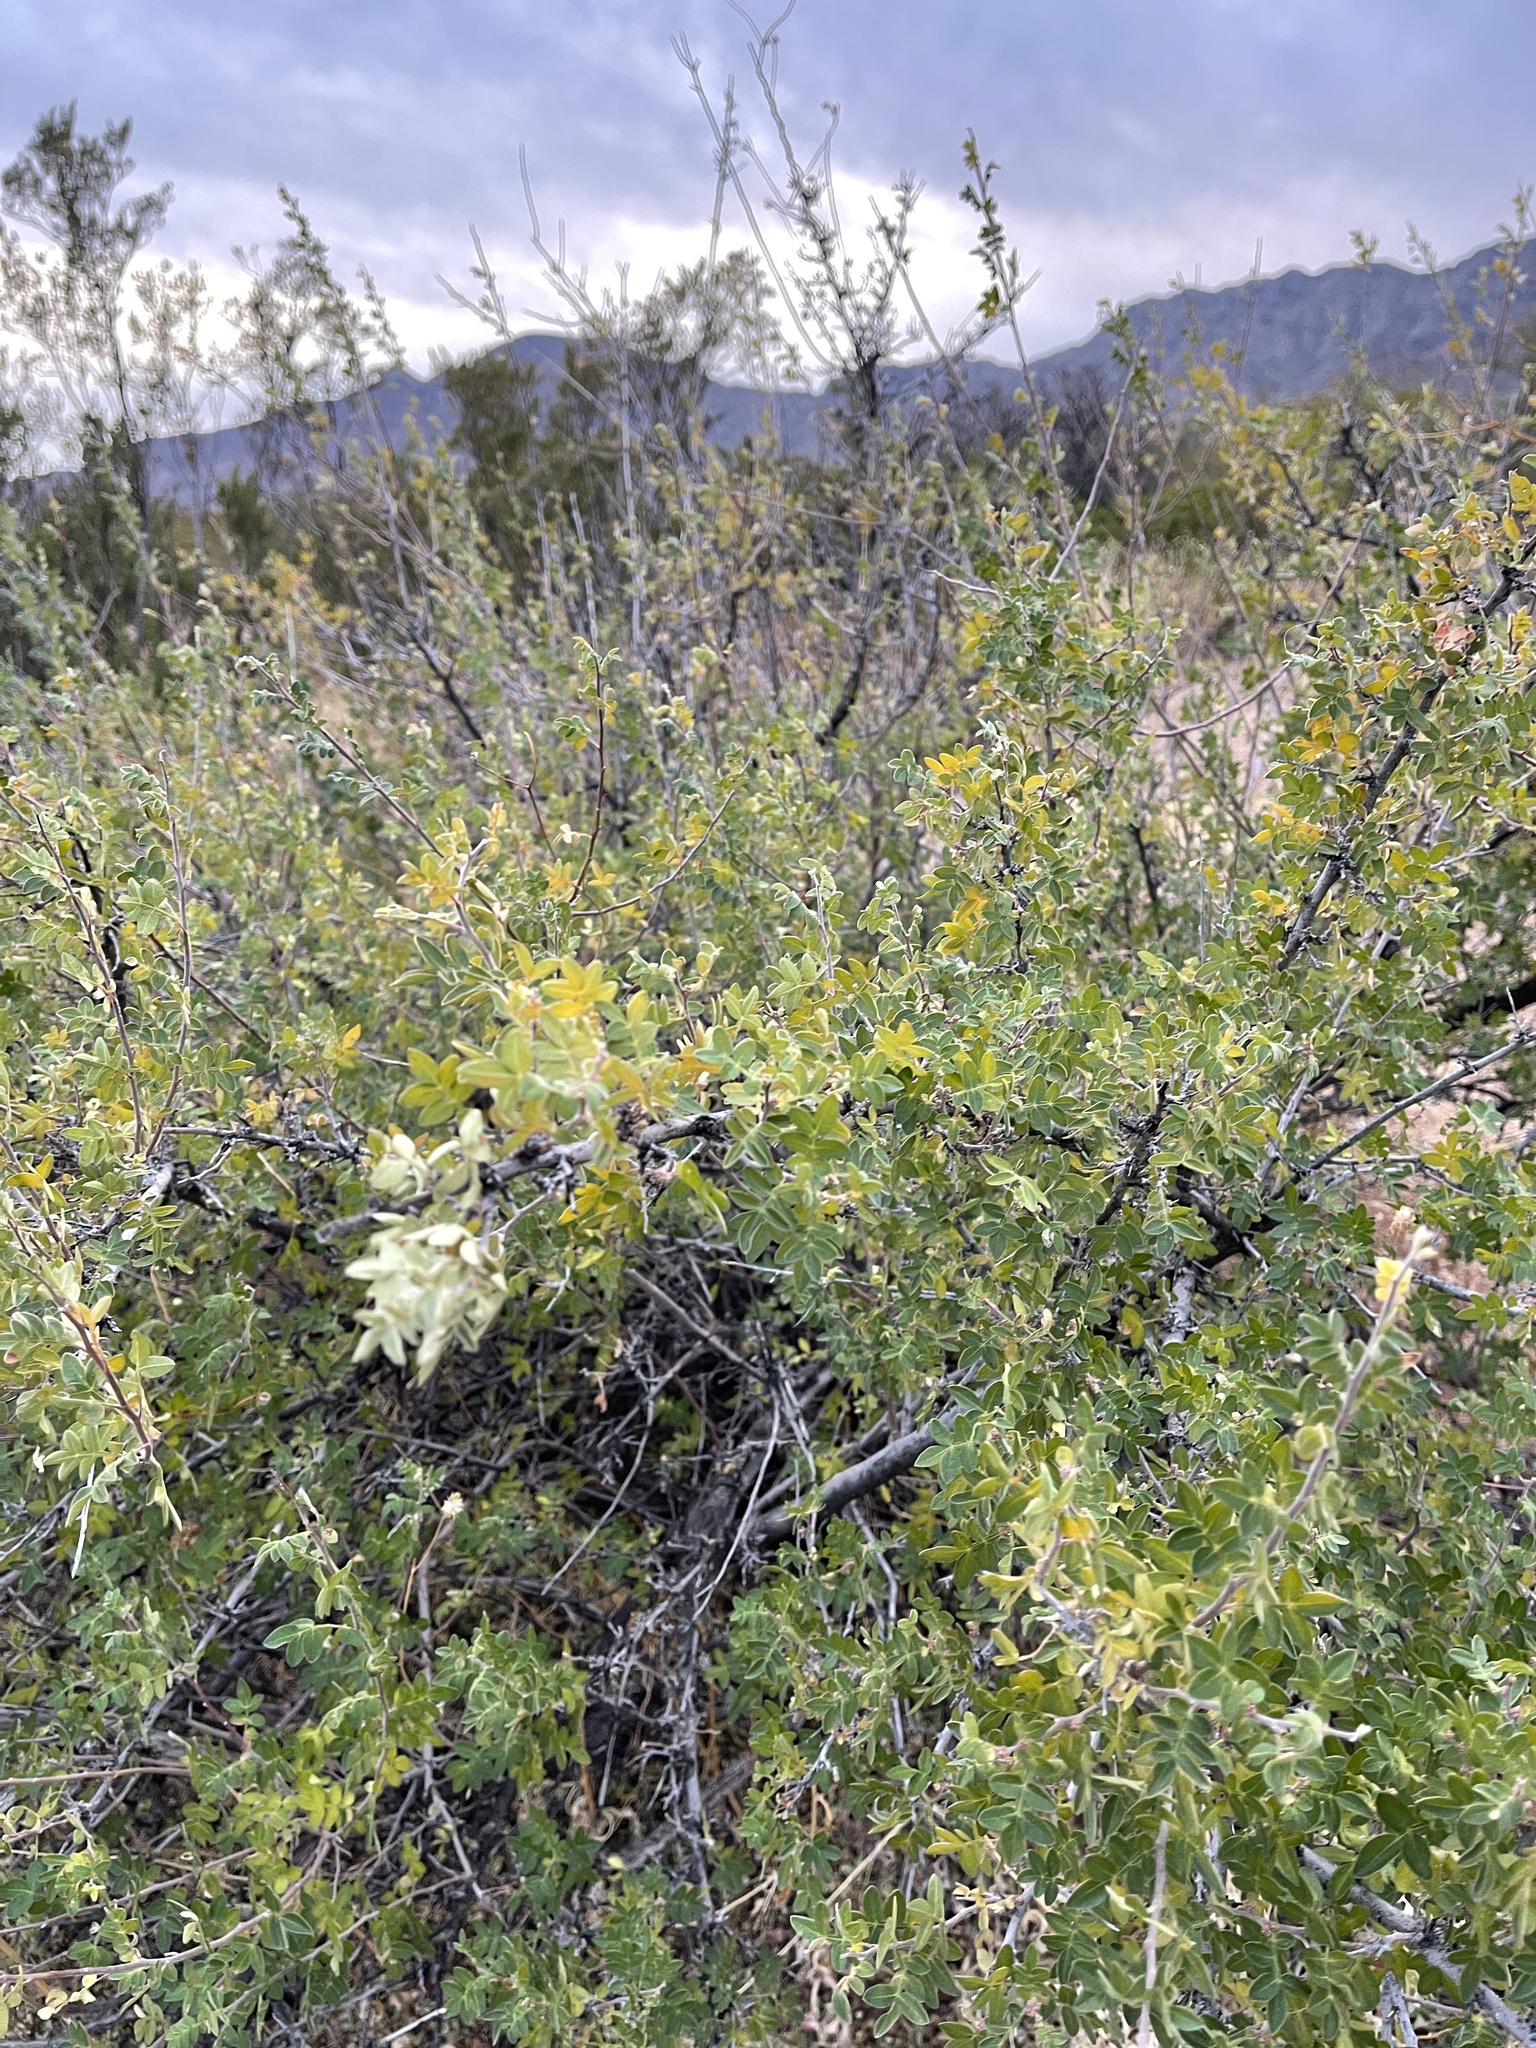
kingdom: Plantae
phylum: Tracheophyta
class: Magnoliopsida
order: Sapindales
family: Anacardiaceae
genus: Rhus
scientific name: Rhus microphylla
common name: Desert sumac
